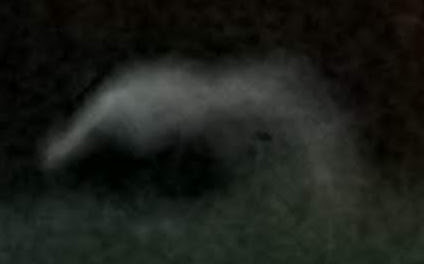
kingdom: Animalia
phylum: Chordata
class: Mammalia
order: Carnivora
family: Mephitidae
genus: Mephitis
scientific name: Mephitis mephitis
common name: Striped skunk
